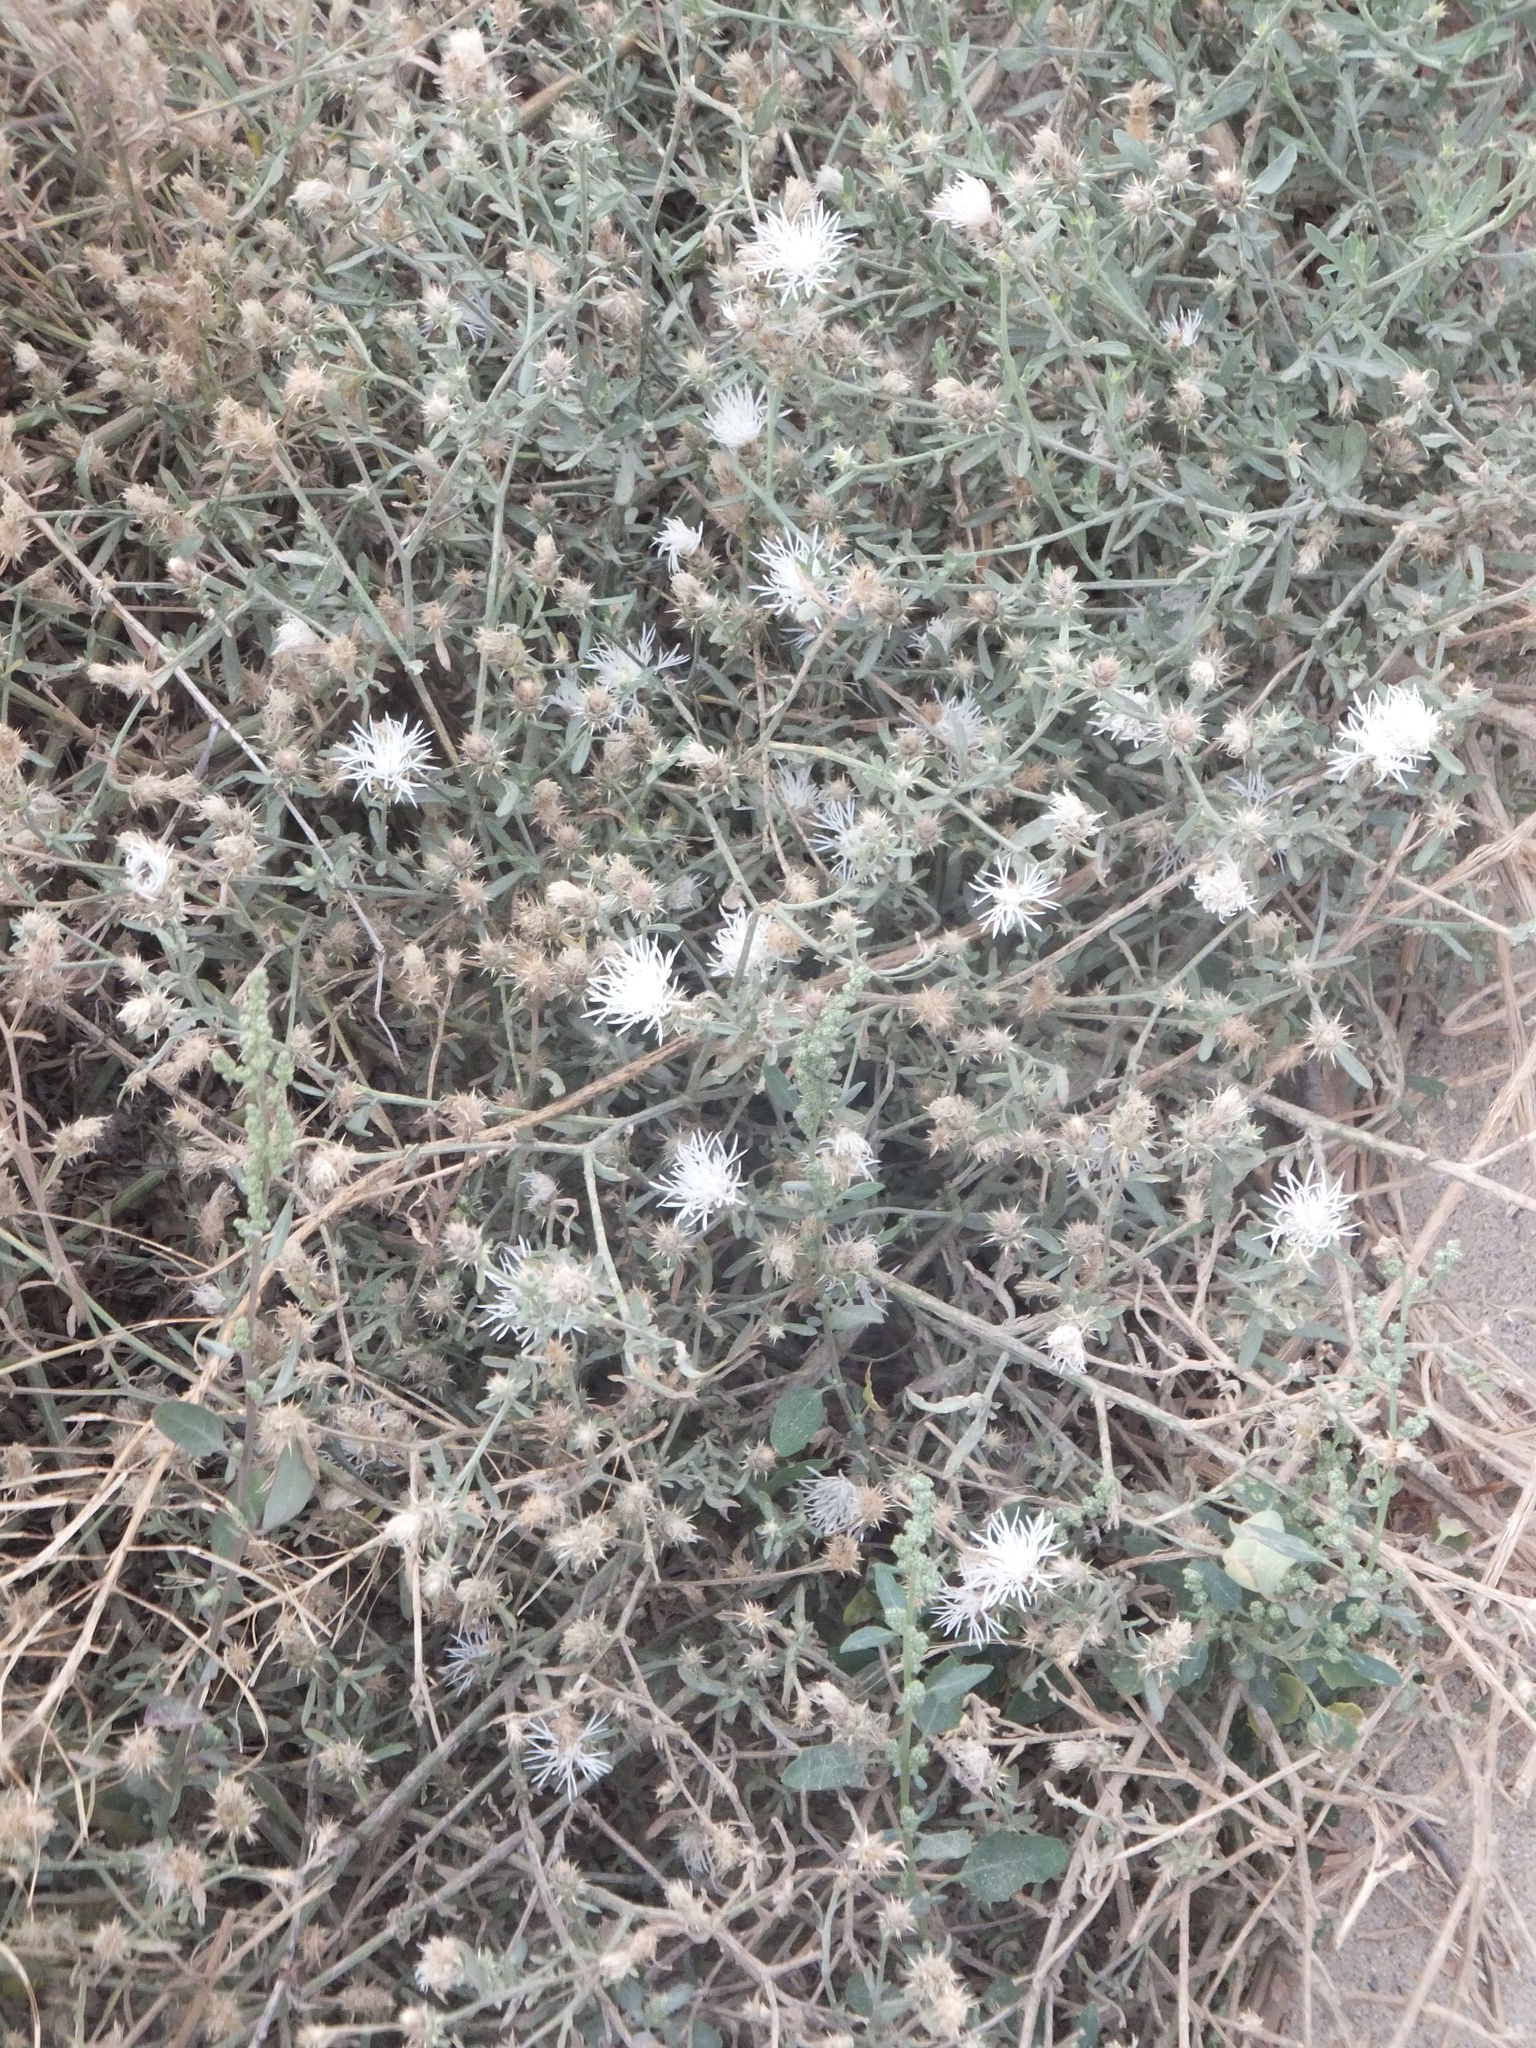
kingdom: Plantae
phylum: Tracheophyta
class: Magnoliopsida
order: Asterales
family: Asteraceae
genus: Centaurea
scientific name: Centaurea diffusa
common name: Diffuse knapweed
